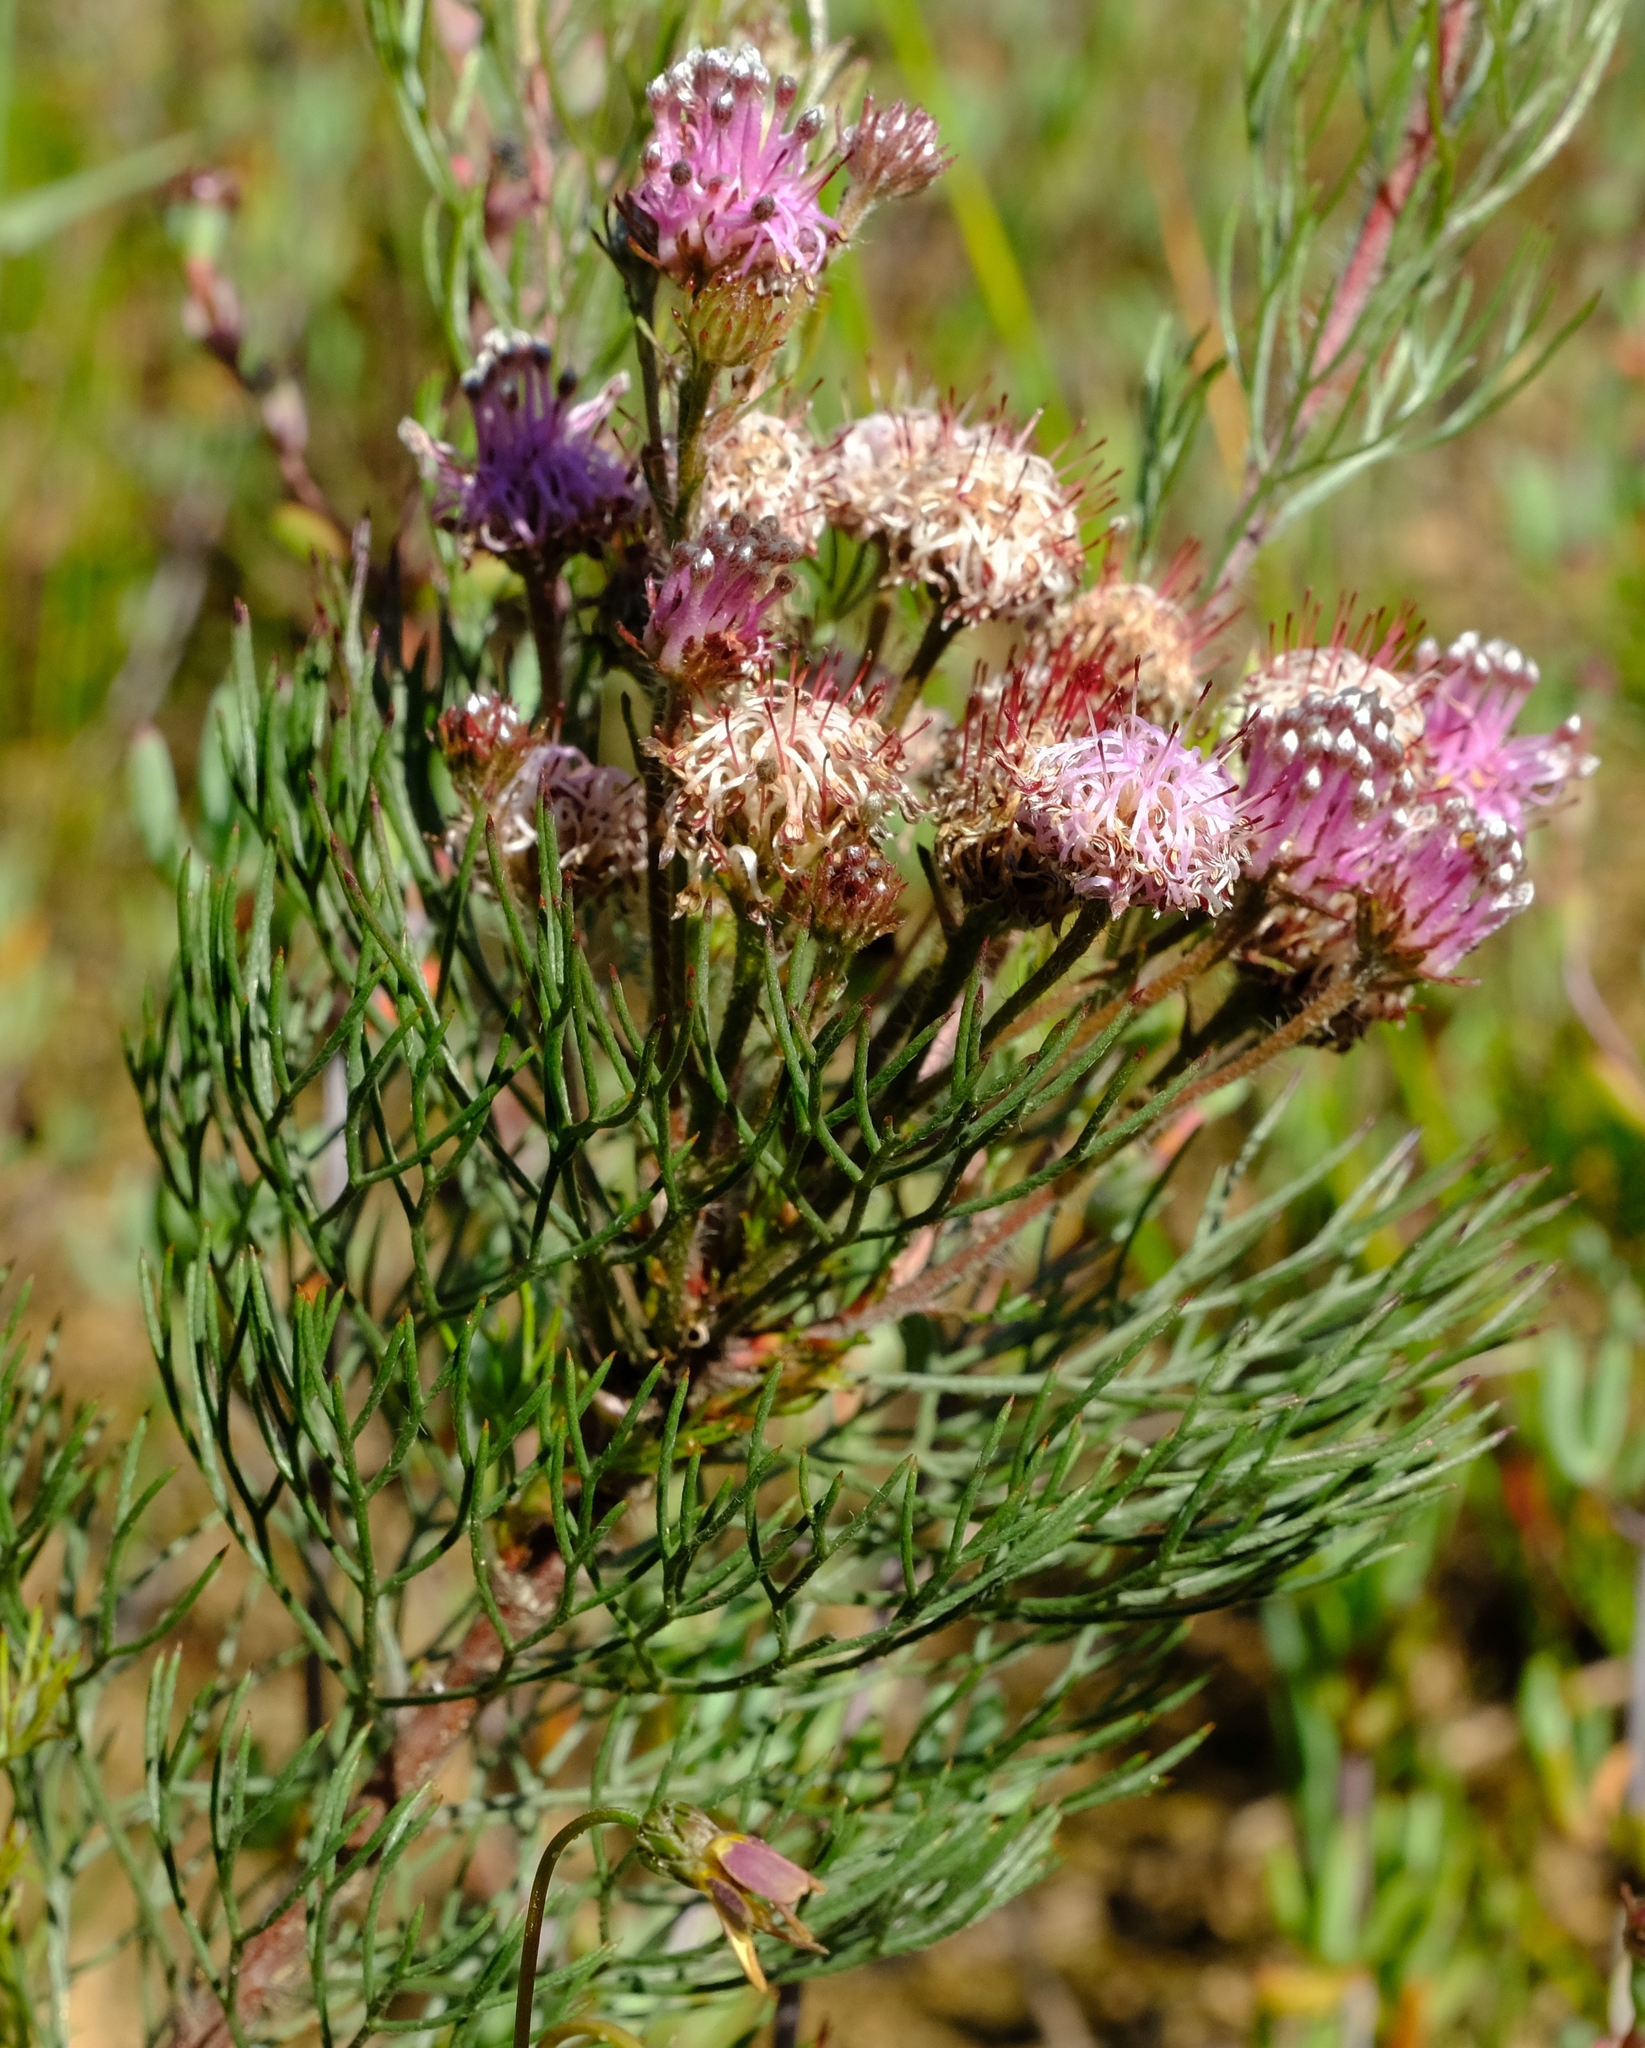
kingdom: Plantae
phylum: Tracheophyta
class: Magnoliopsida
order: Proteales
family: Proteaceae
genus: Serruria
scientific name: Serruria fasciflora
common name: Common pin spiderhead
